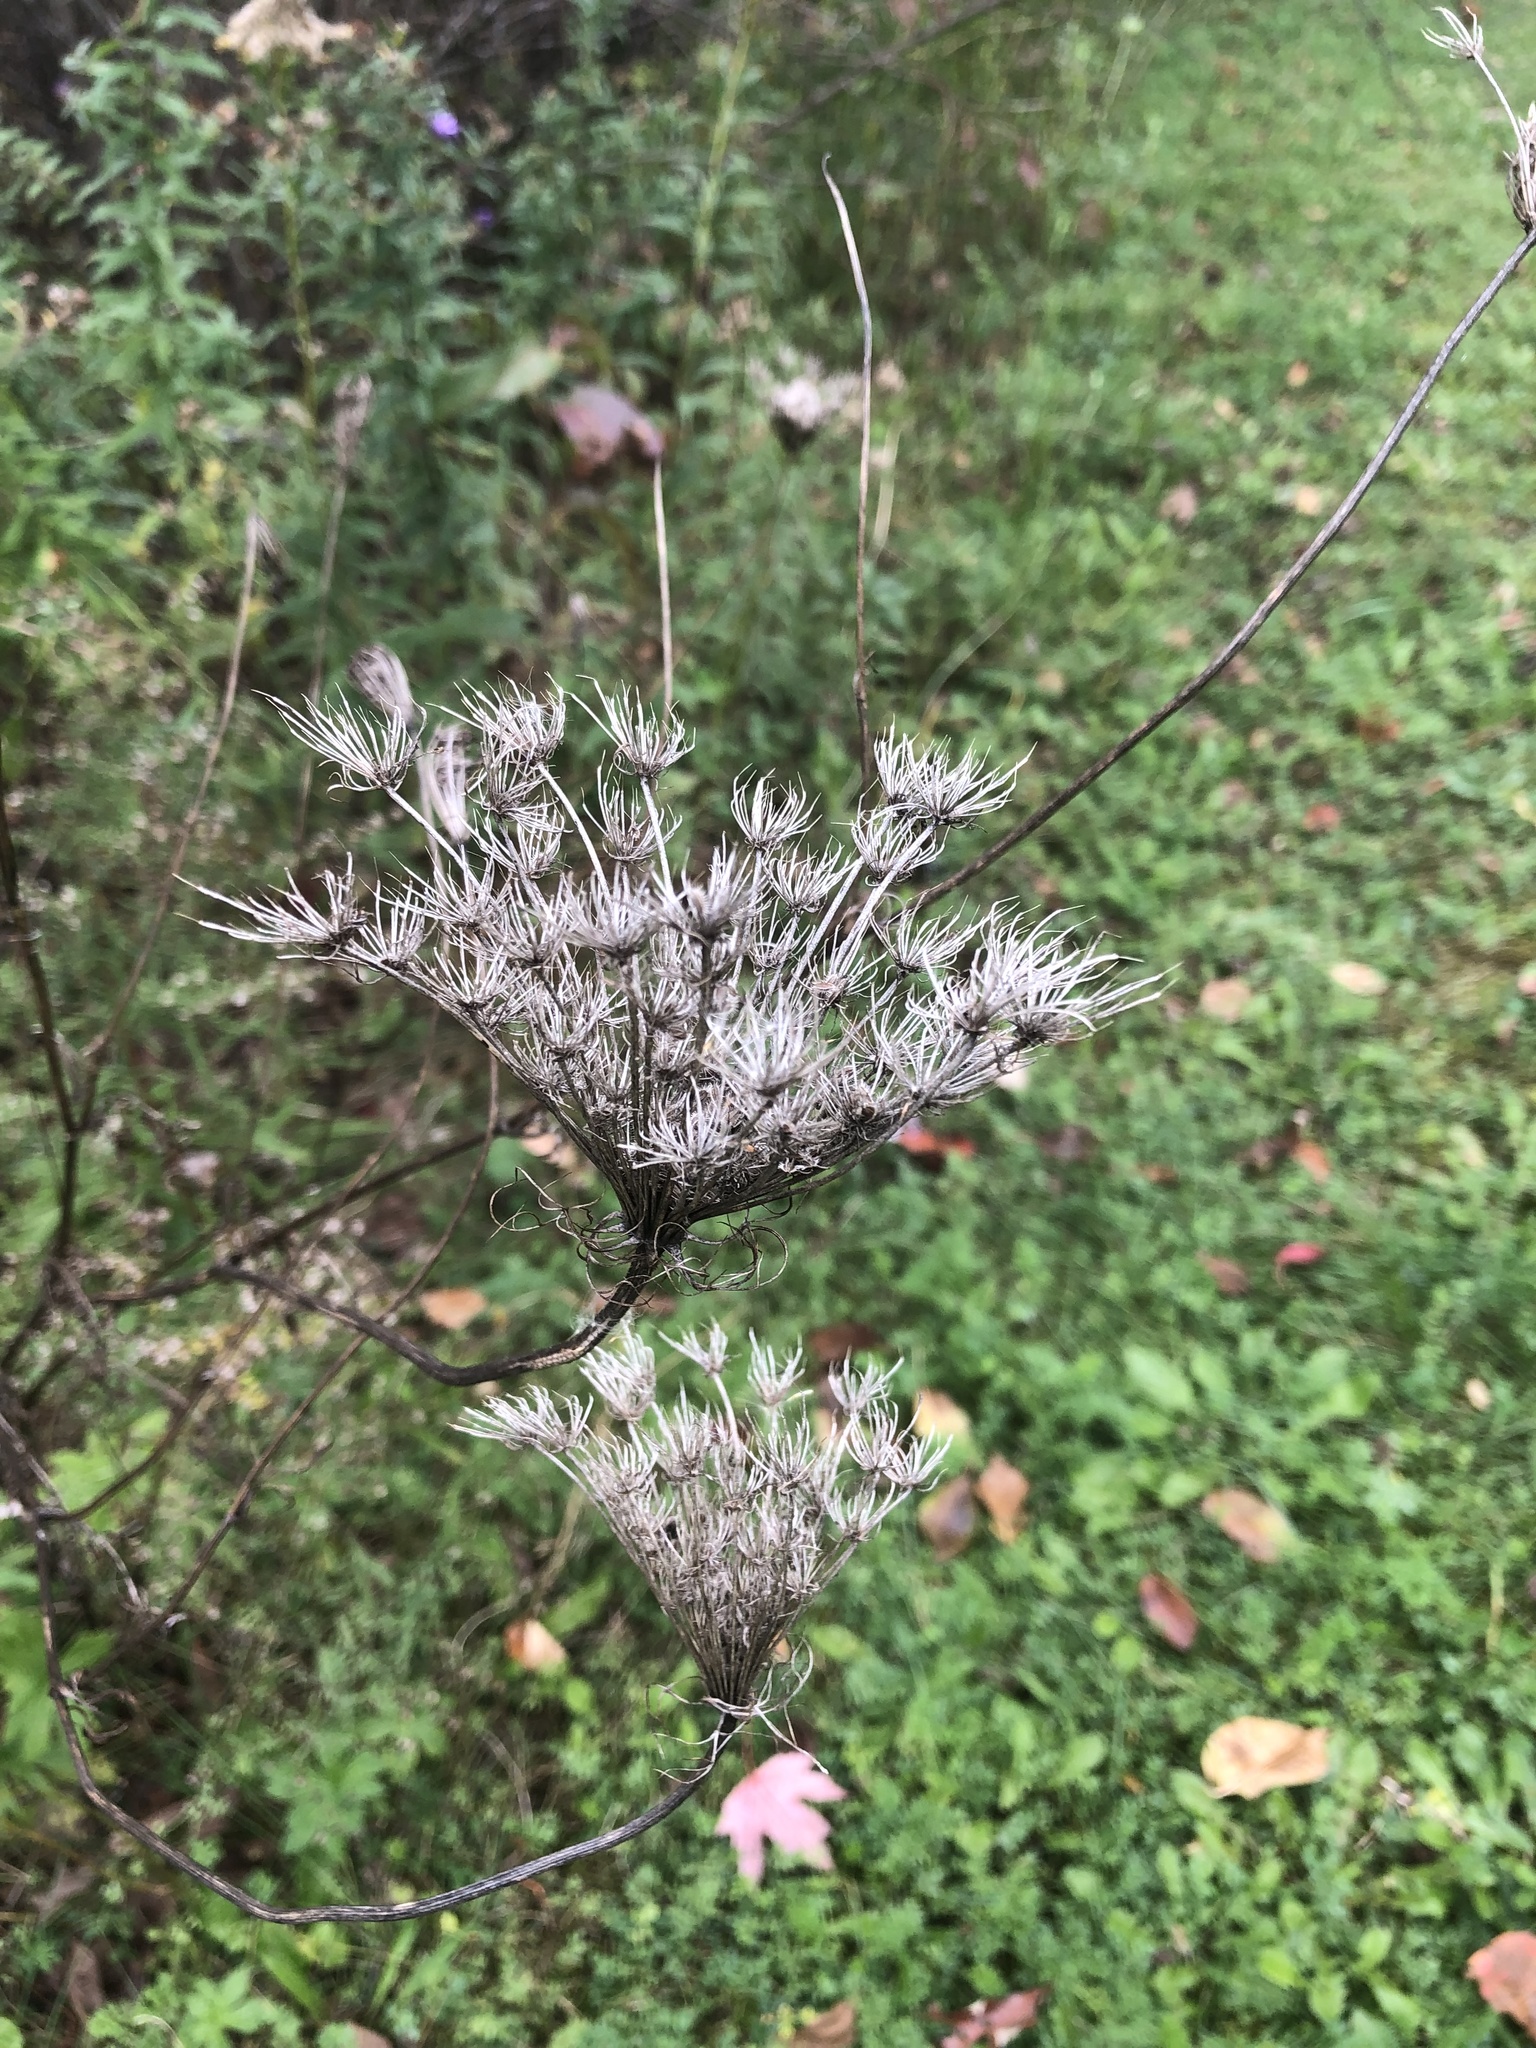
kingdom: Plantae
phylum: Tracheophyta
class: Magnoliopsida
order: Apiales
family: Apiaceae
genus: Daucus
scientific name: Daucus carota
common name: Wild carrot
